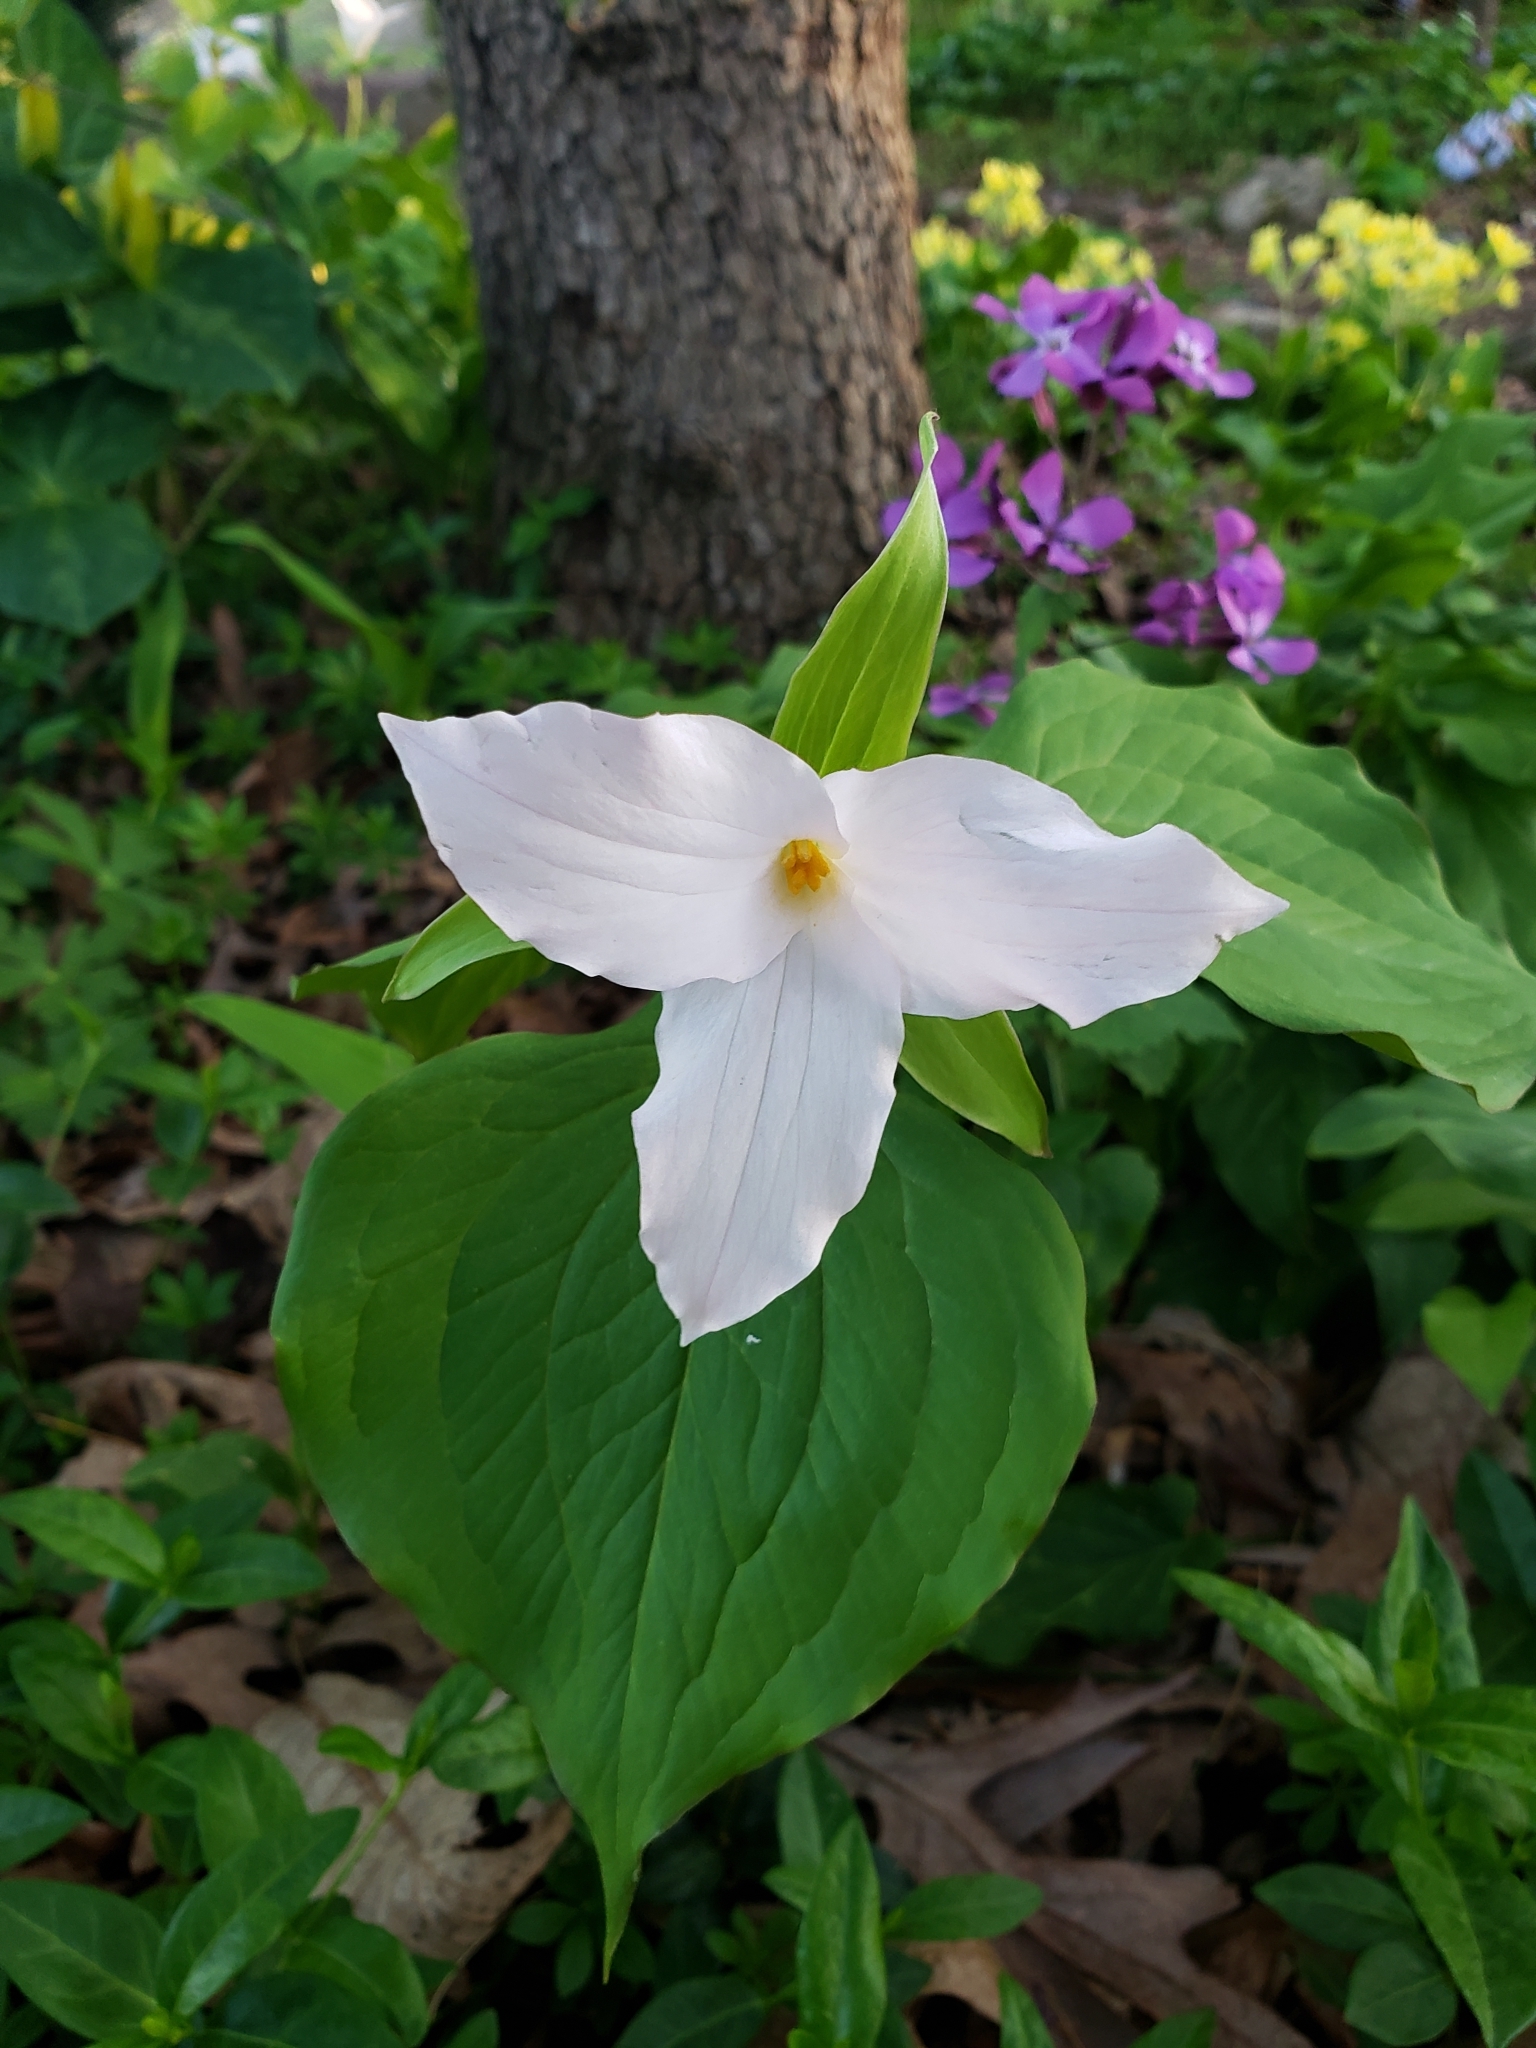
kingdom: Plantae
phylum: Tracheophyta
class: Liliopsida
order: Liliales
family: Melanthiaceae
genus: Trillium
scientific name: Trillium grandiflorum
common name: Great white trillium
